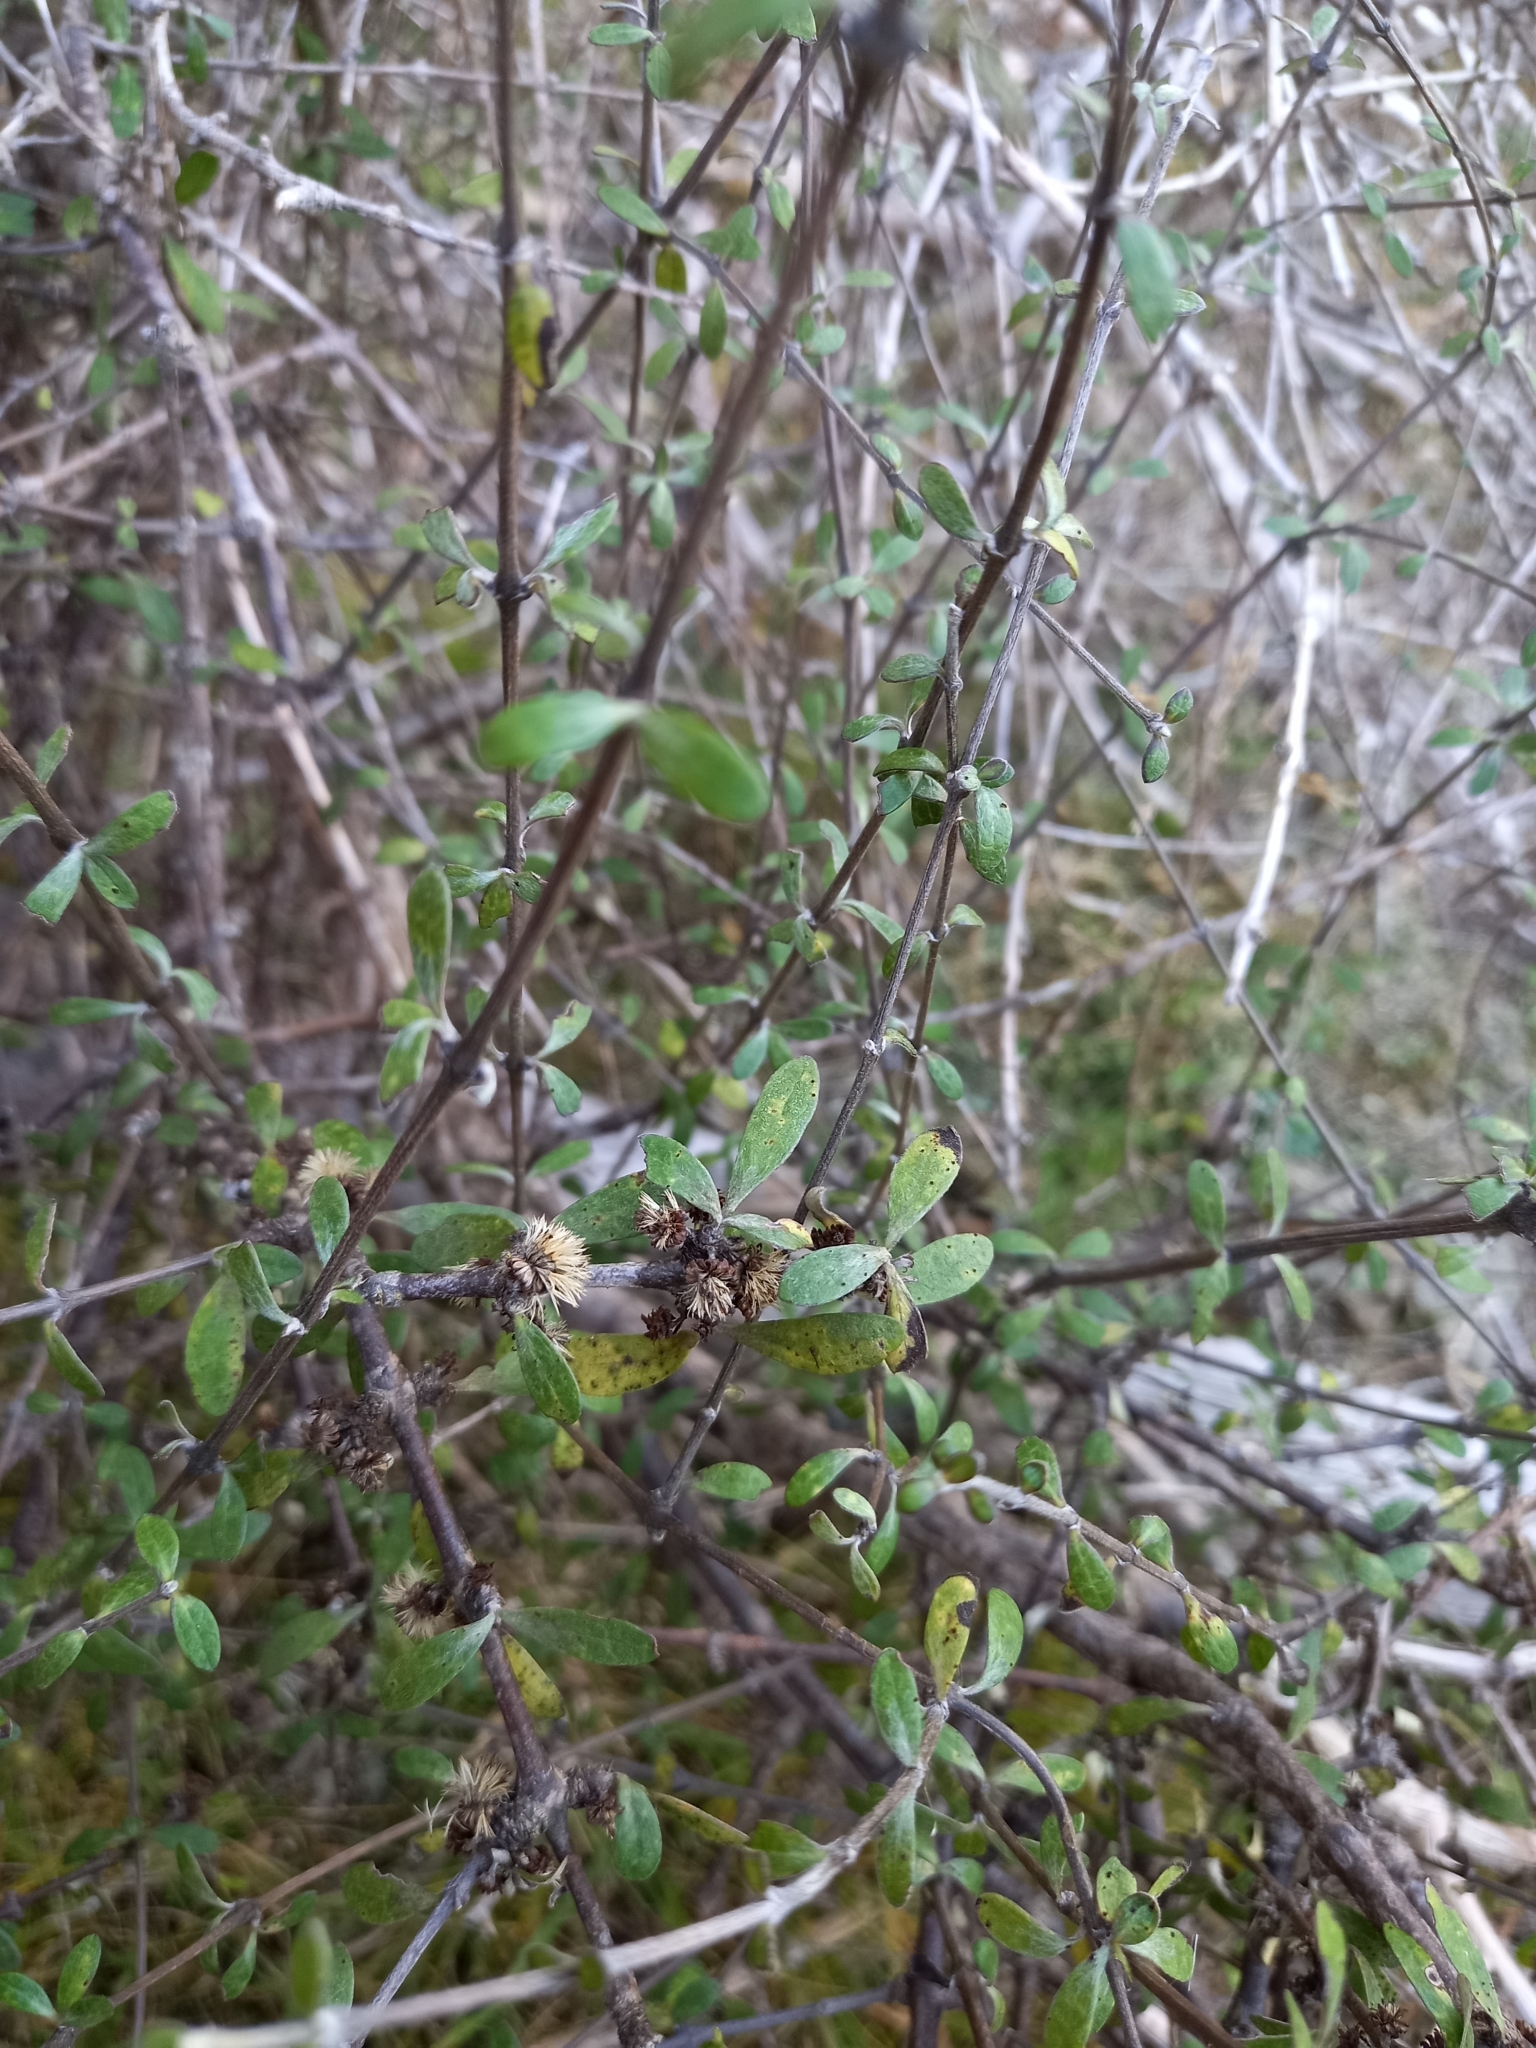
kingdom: Plantae
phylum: Tracheophyta
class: Magnoliopsida
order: Asterales
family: Asteraceae
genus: Olearia
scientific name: Olearia odorata
